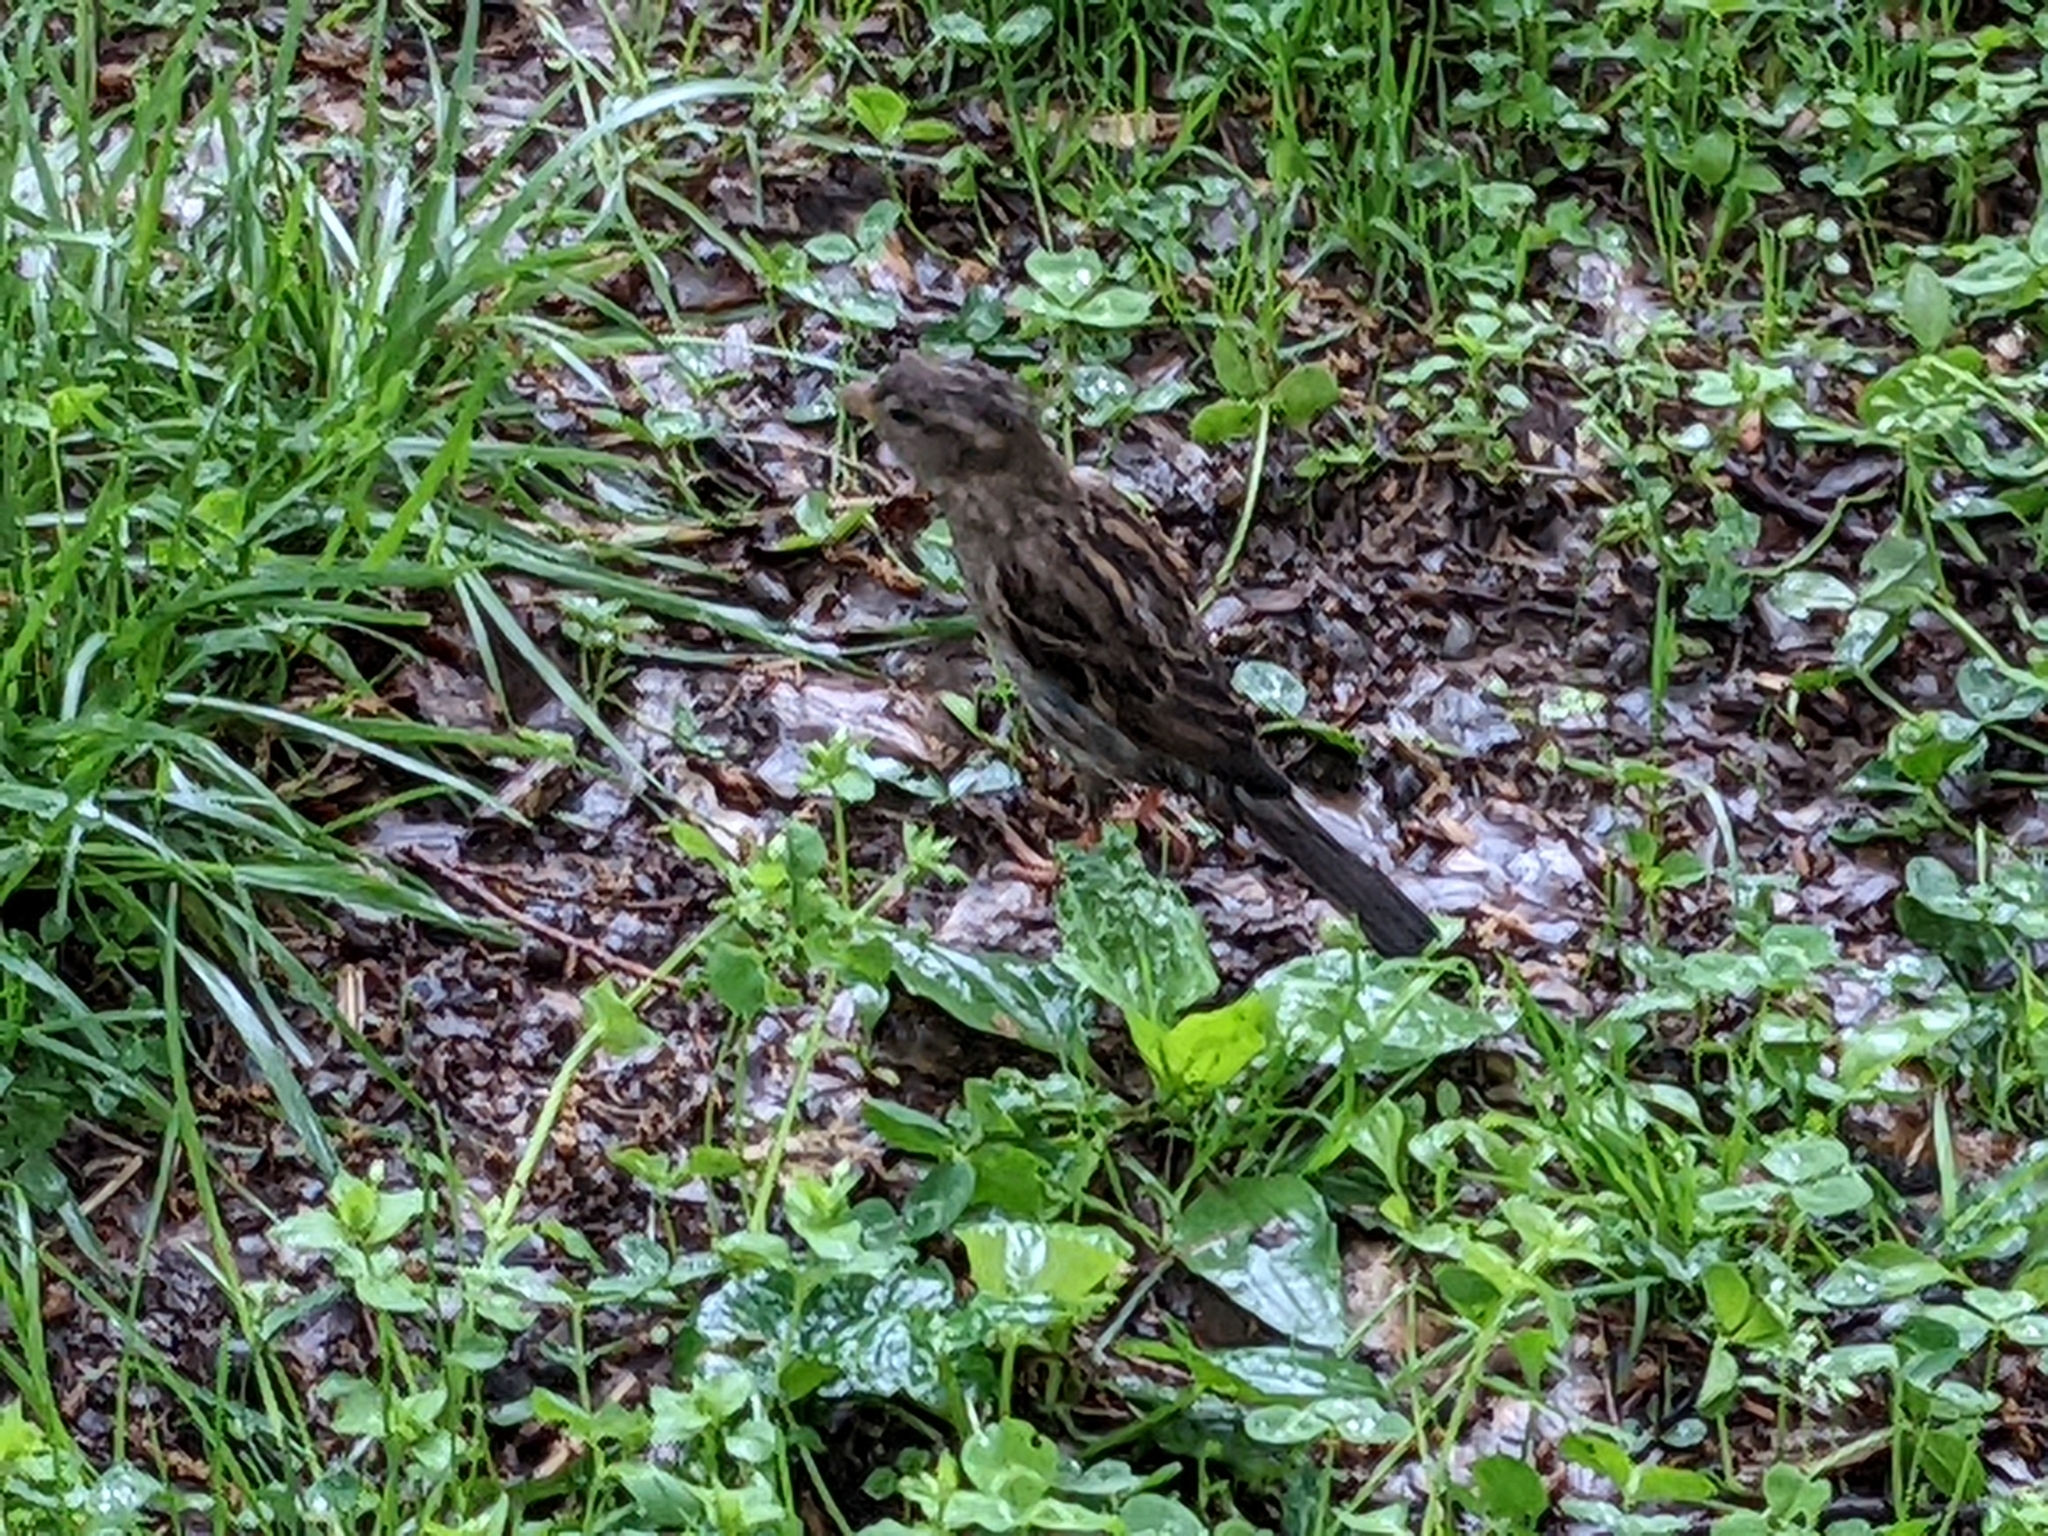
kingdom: Animalia
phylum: Chordata
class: Aves
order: Passeriformes
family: Passeridae
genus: Passer
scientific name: Passer domesticus
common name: House sparrow
